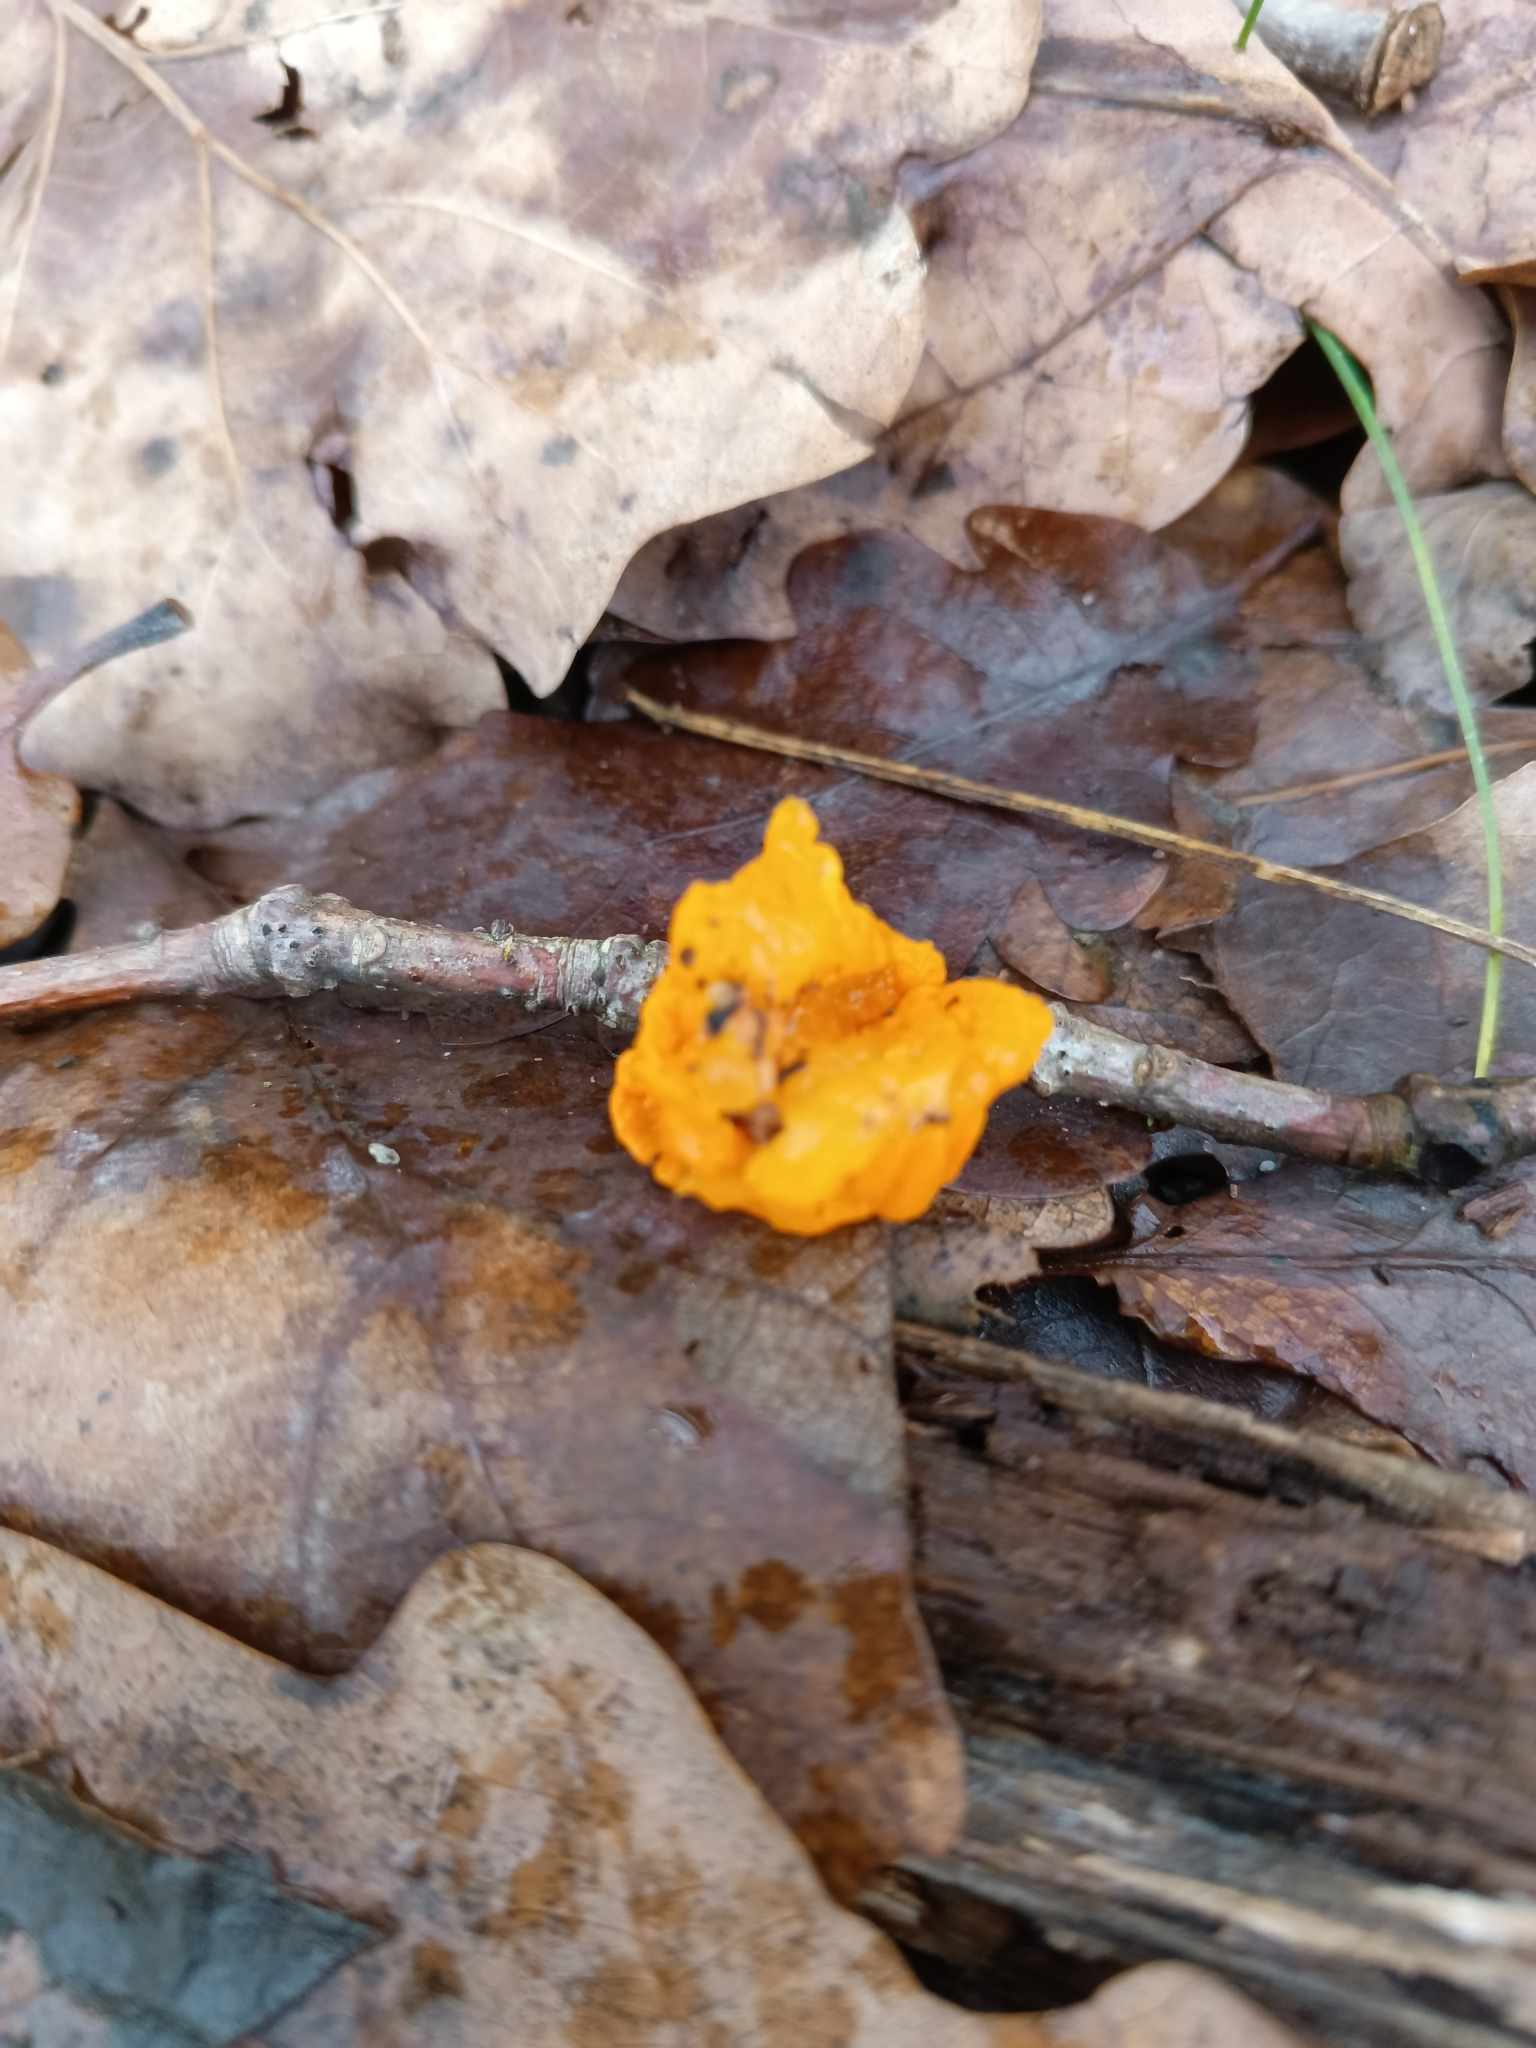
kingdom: Fungi
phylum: Basidiomycota
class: Tremellomycetes
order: Tremellales
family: Tremellaceae
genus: Tremella
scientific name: Tremella mesenterica
